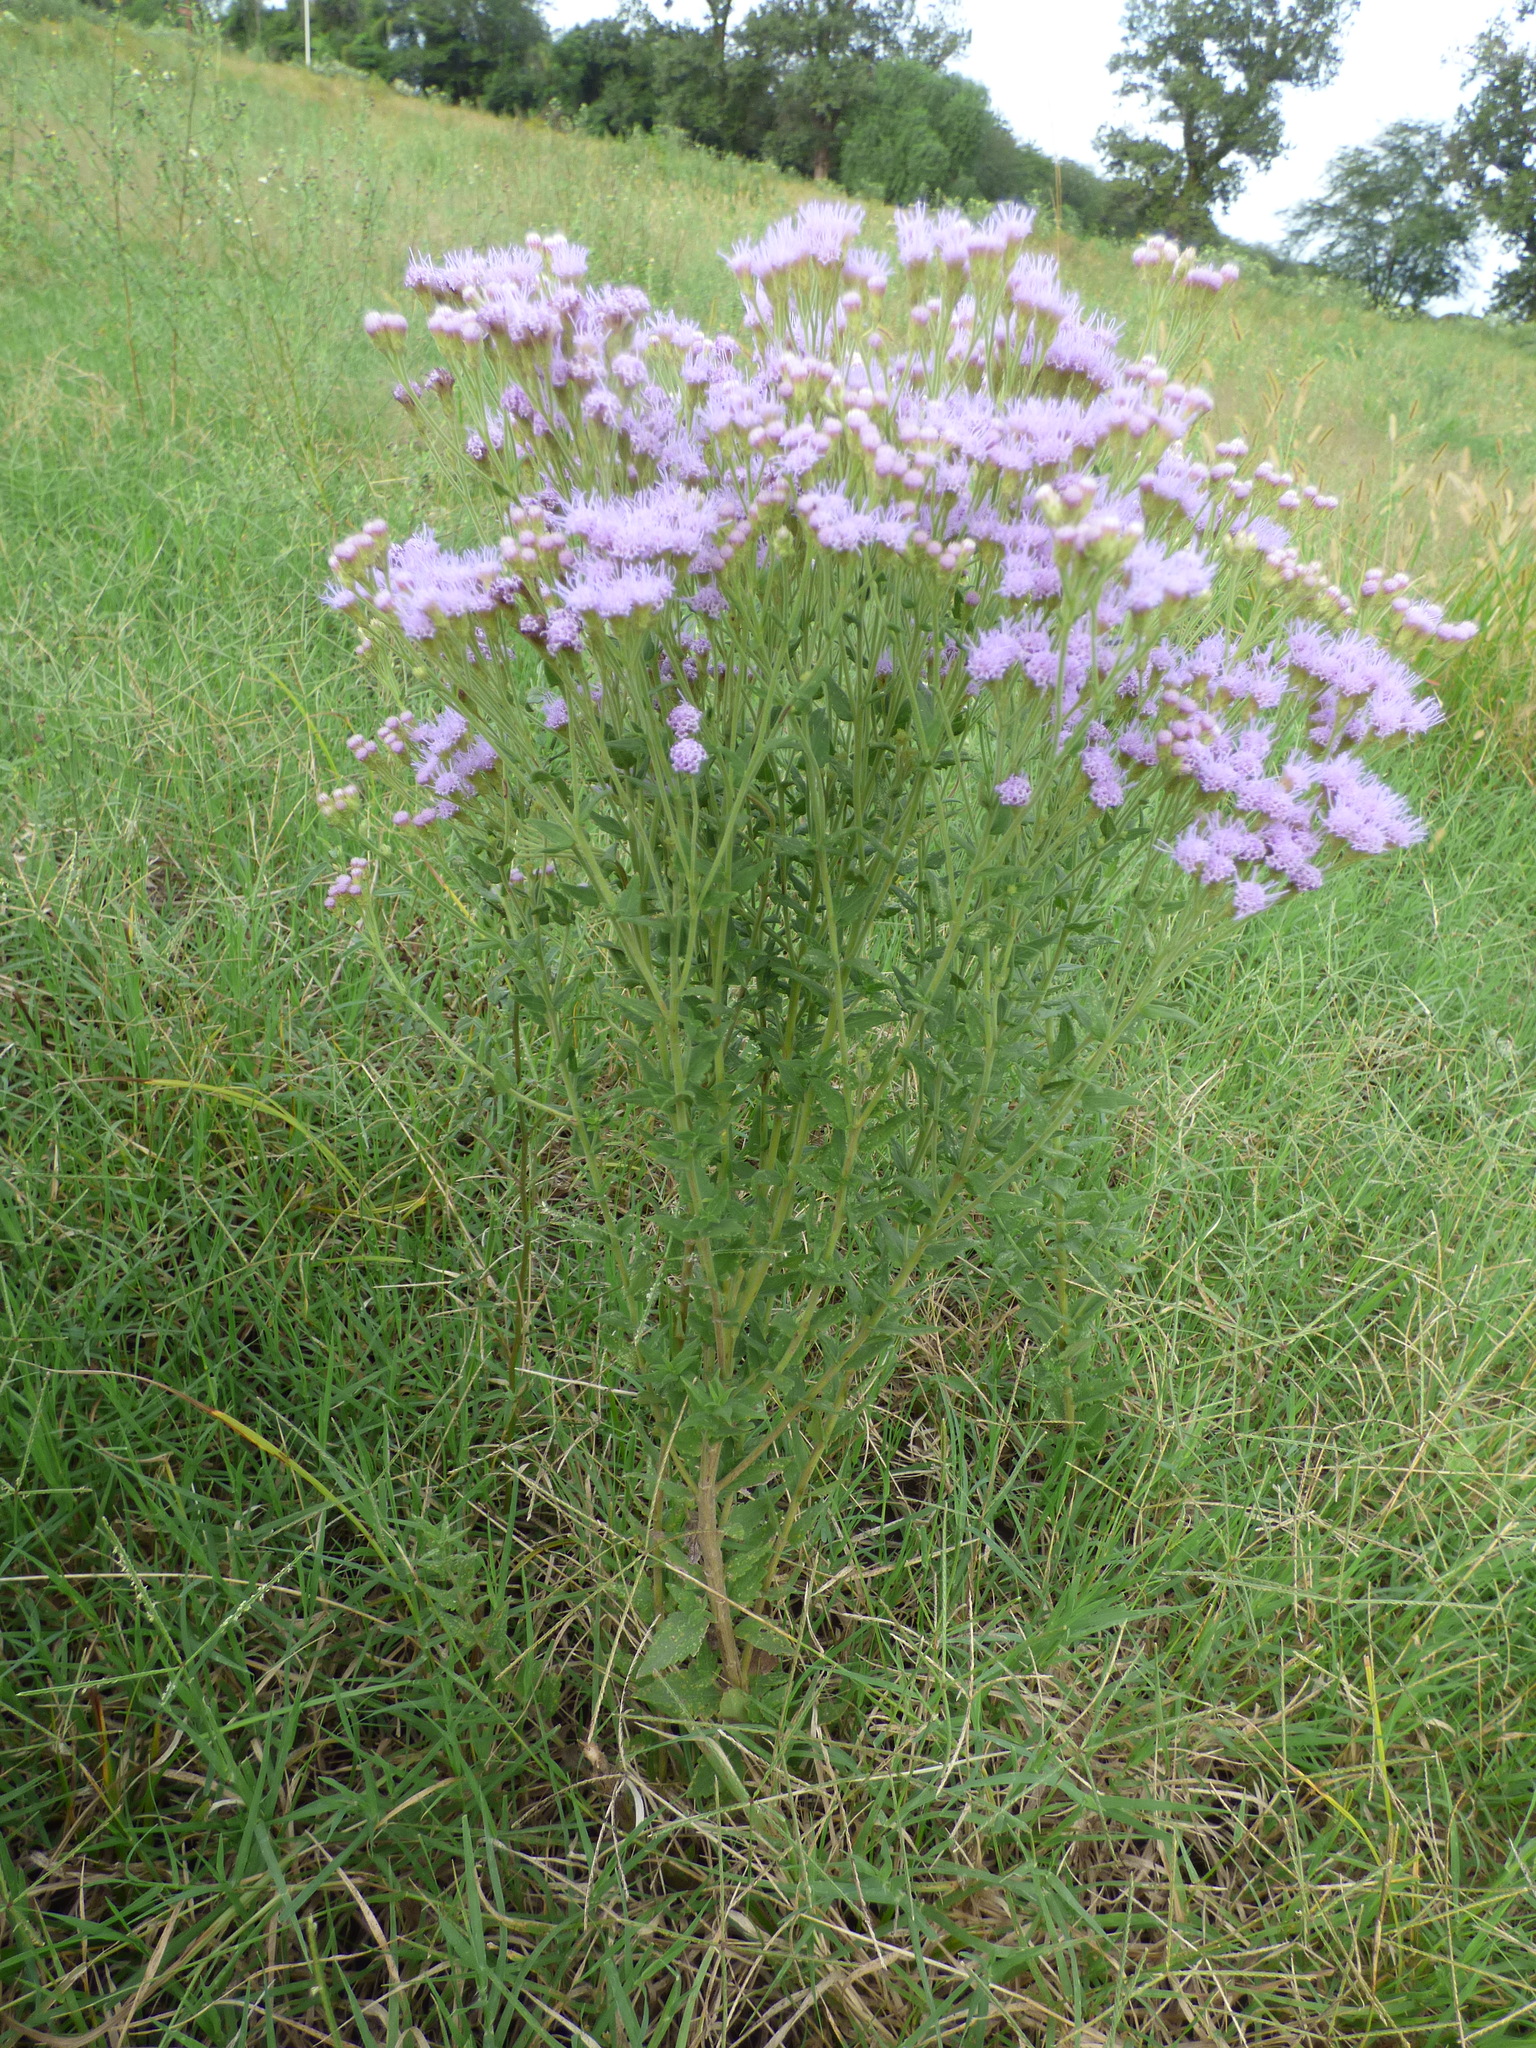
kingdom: Plantae
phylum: Tracheophyta
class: Magnoliopsida
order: Asterales
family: Asteraceae
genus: Chromolaena
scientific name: Chromolaena hirsuta
